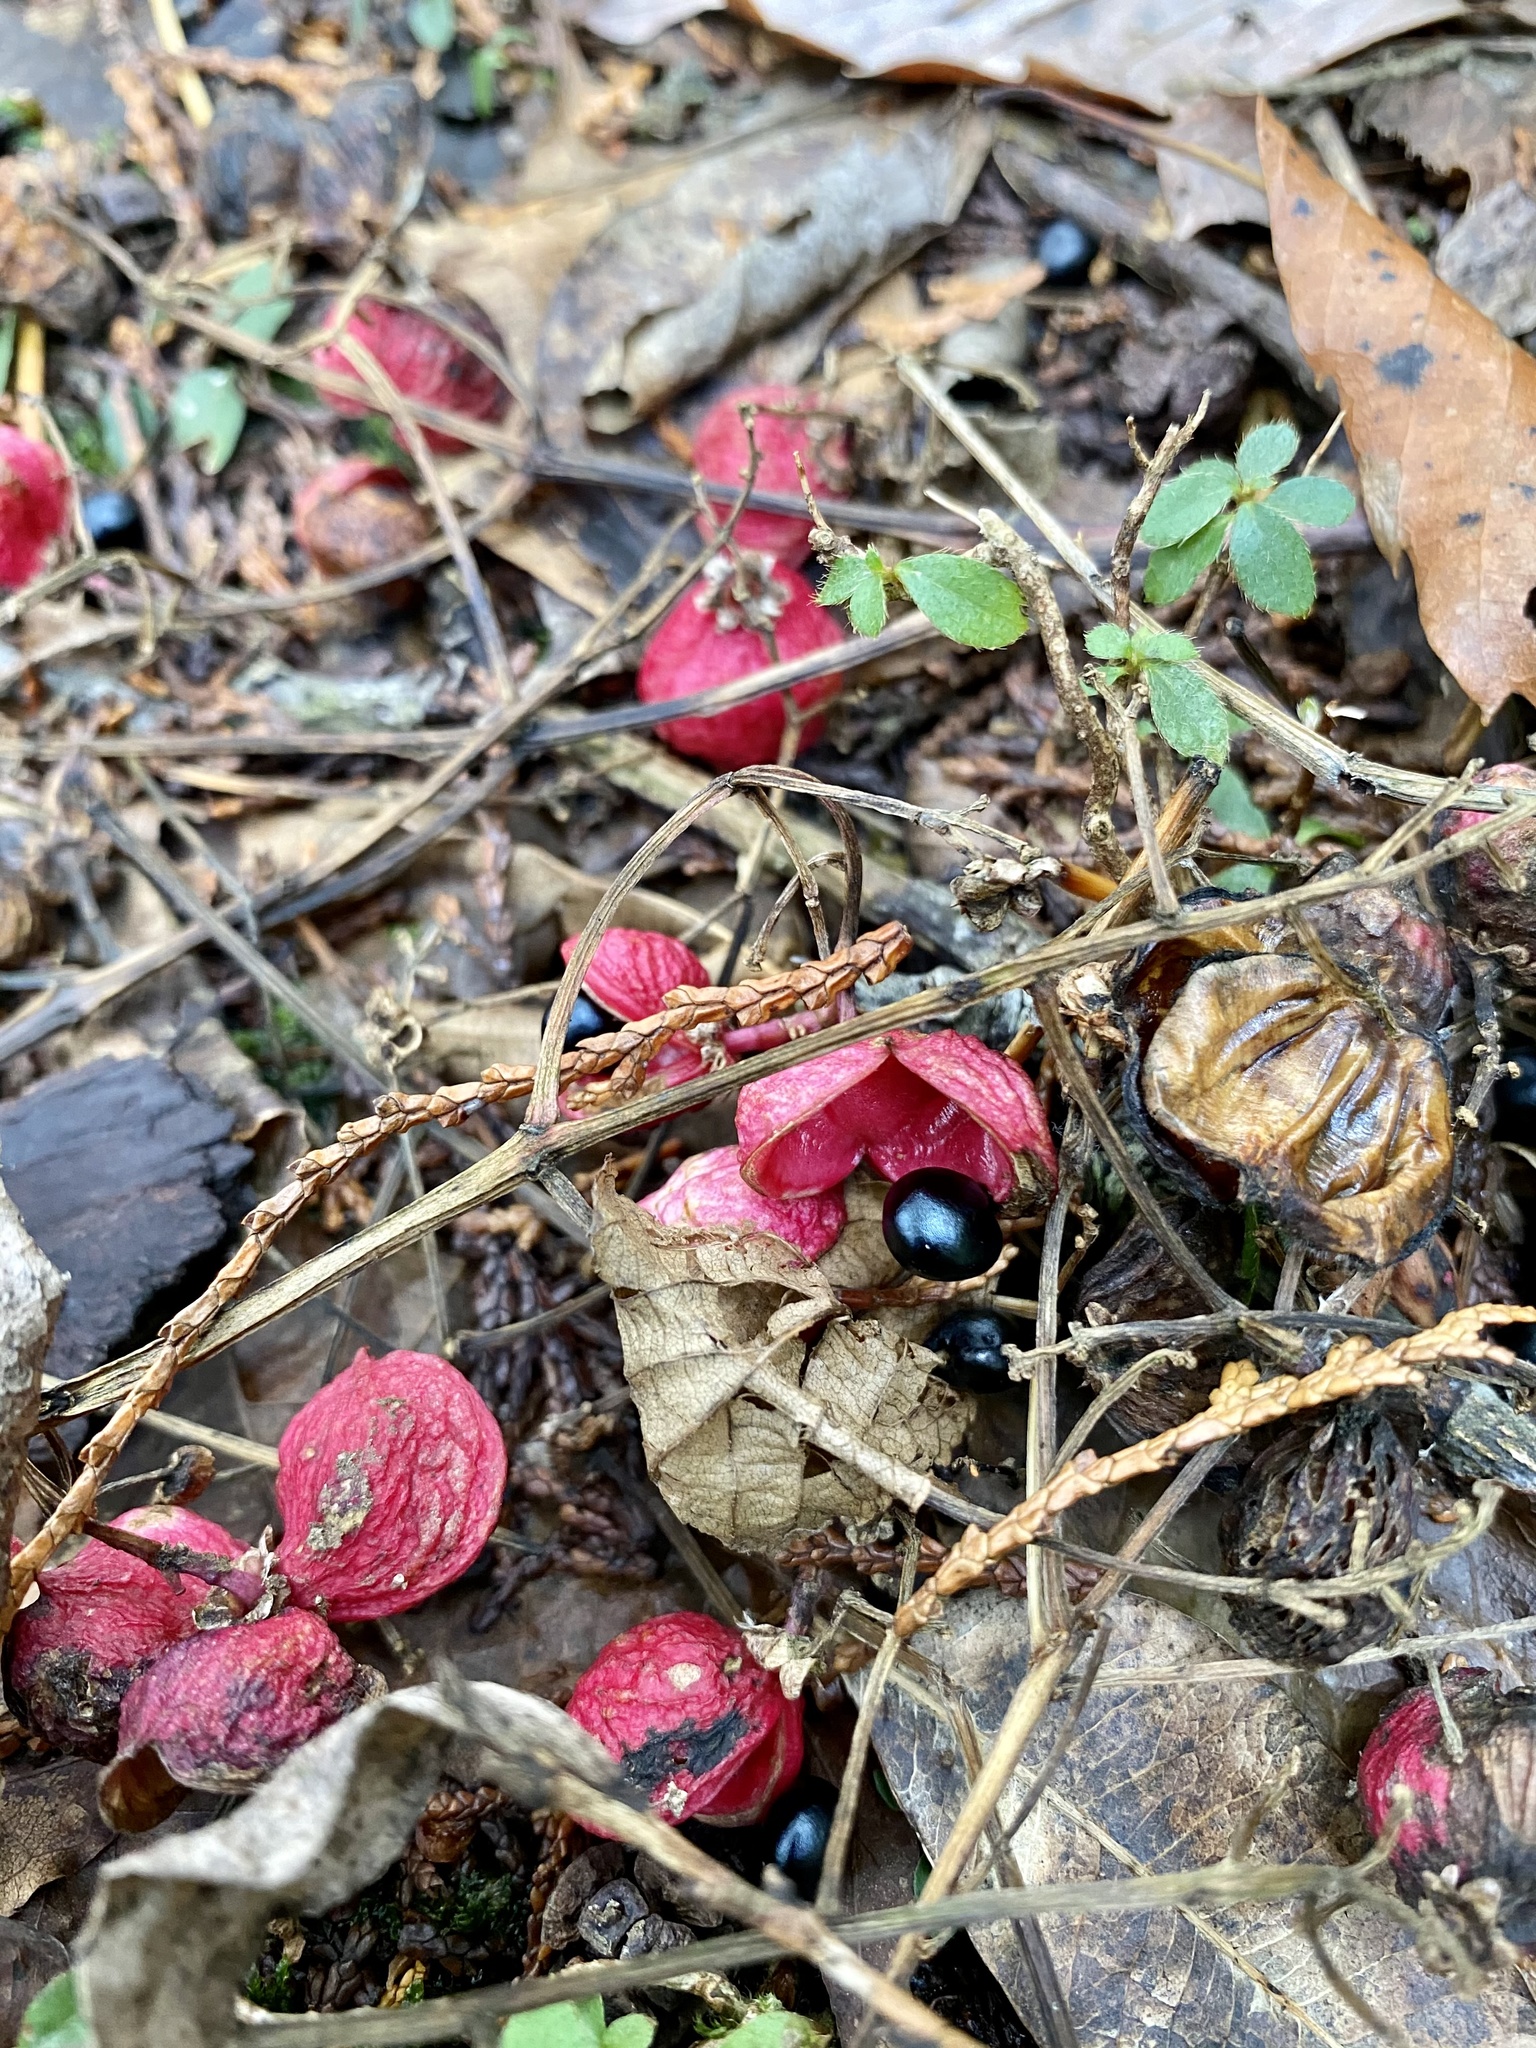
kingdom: Plantae
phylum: Tracheophyta
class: Magnoliopsida
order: Crossosomatales
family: Staphyleaceae
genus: Staphylea
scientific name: Staphylea japonica
